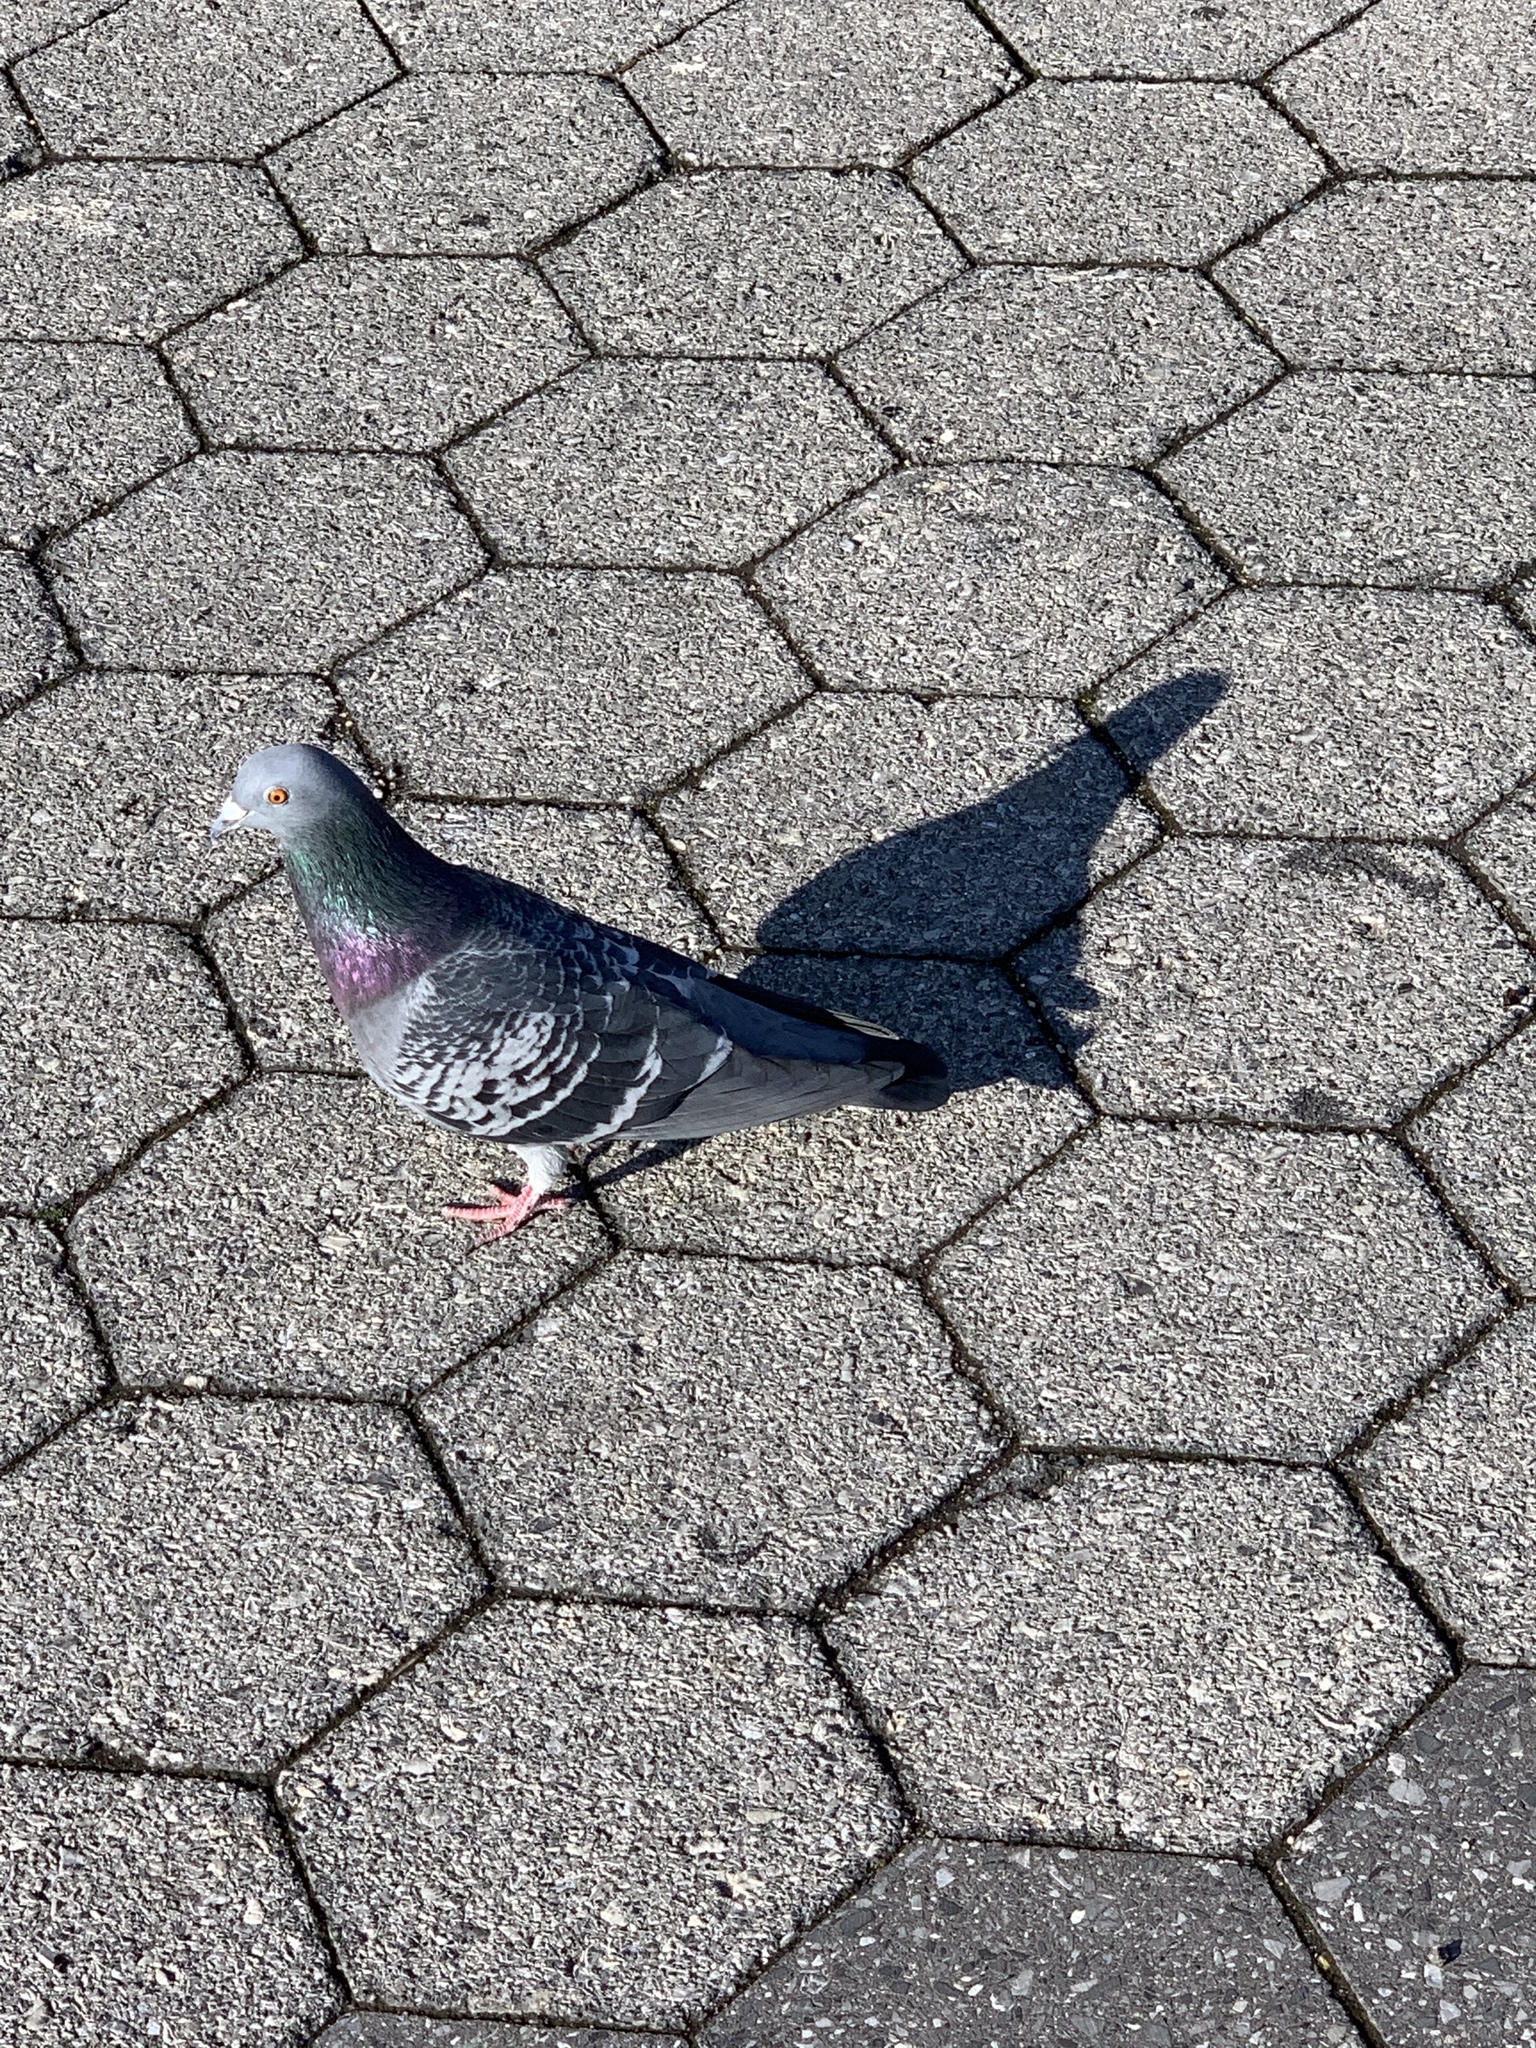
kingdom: Animalia
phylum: Chordata
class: Aves
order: Columbiformes
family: Columbidae
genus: Columba
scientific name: Columba livia
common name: Rock pigeon
